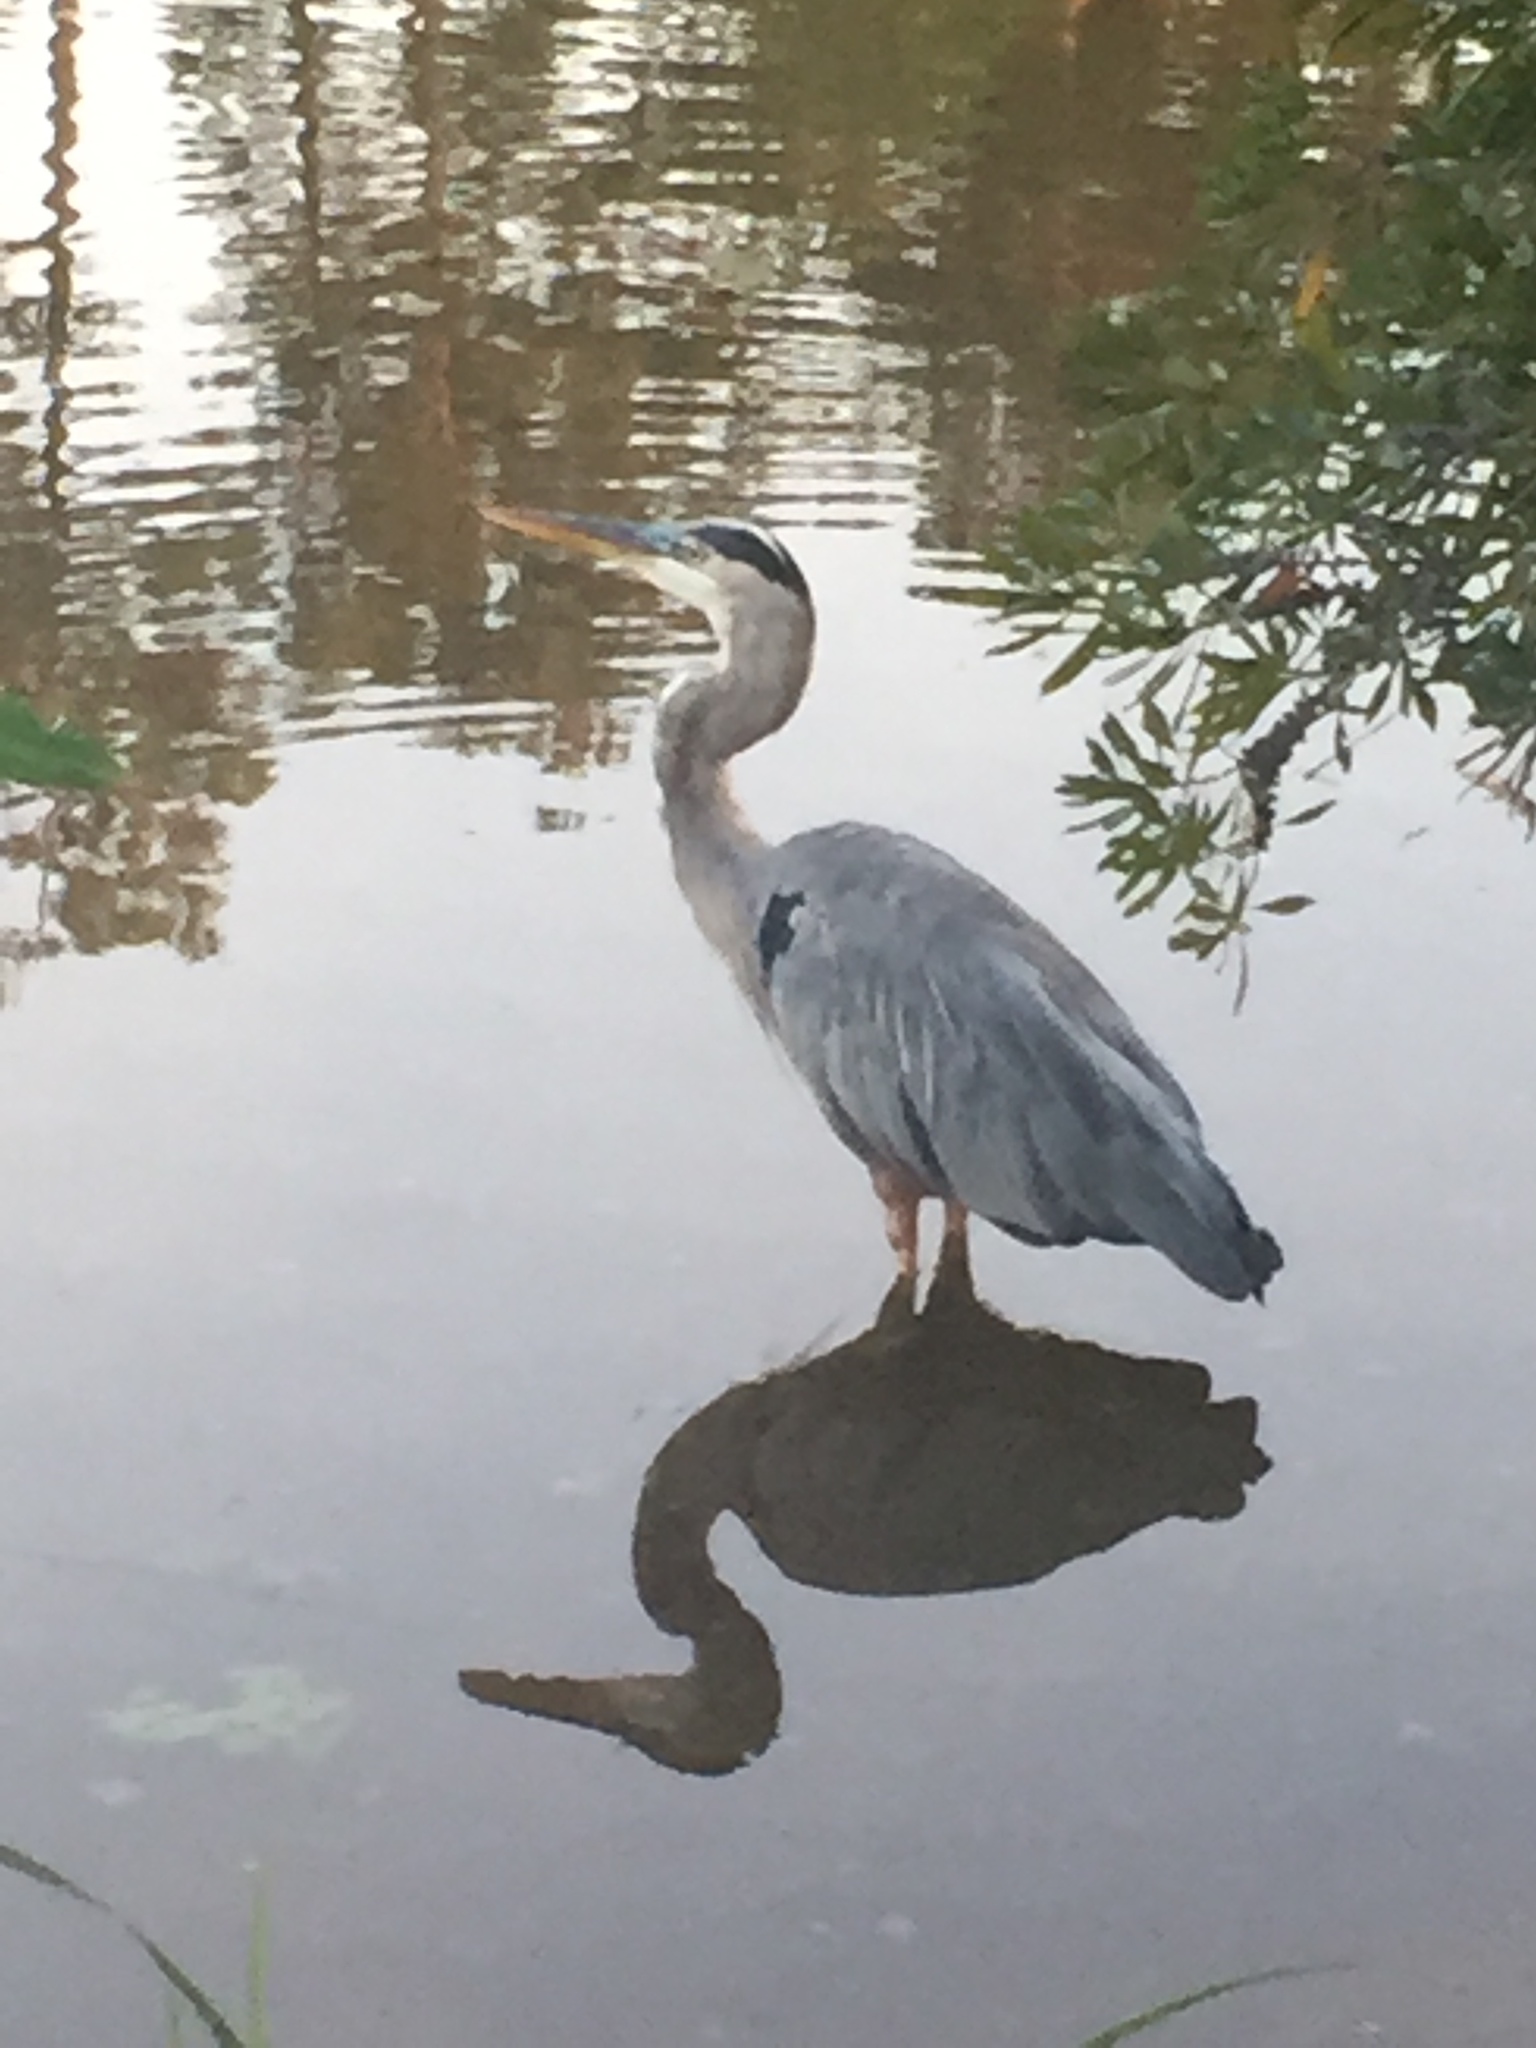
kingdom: Animalia
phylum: Chordata
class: Aves
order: Pelecaniformes
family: Ardeidae
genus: Ardea
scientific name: Ardea herodias
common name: Great blue heron
